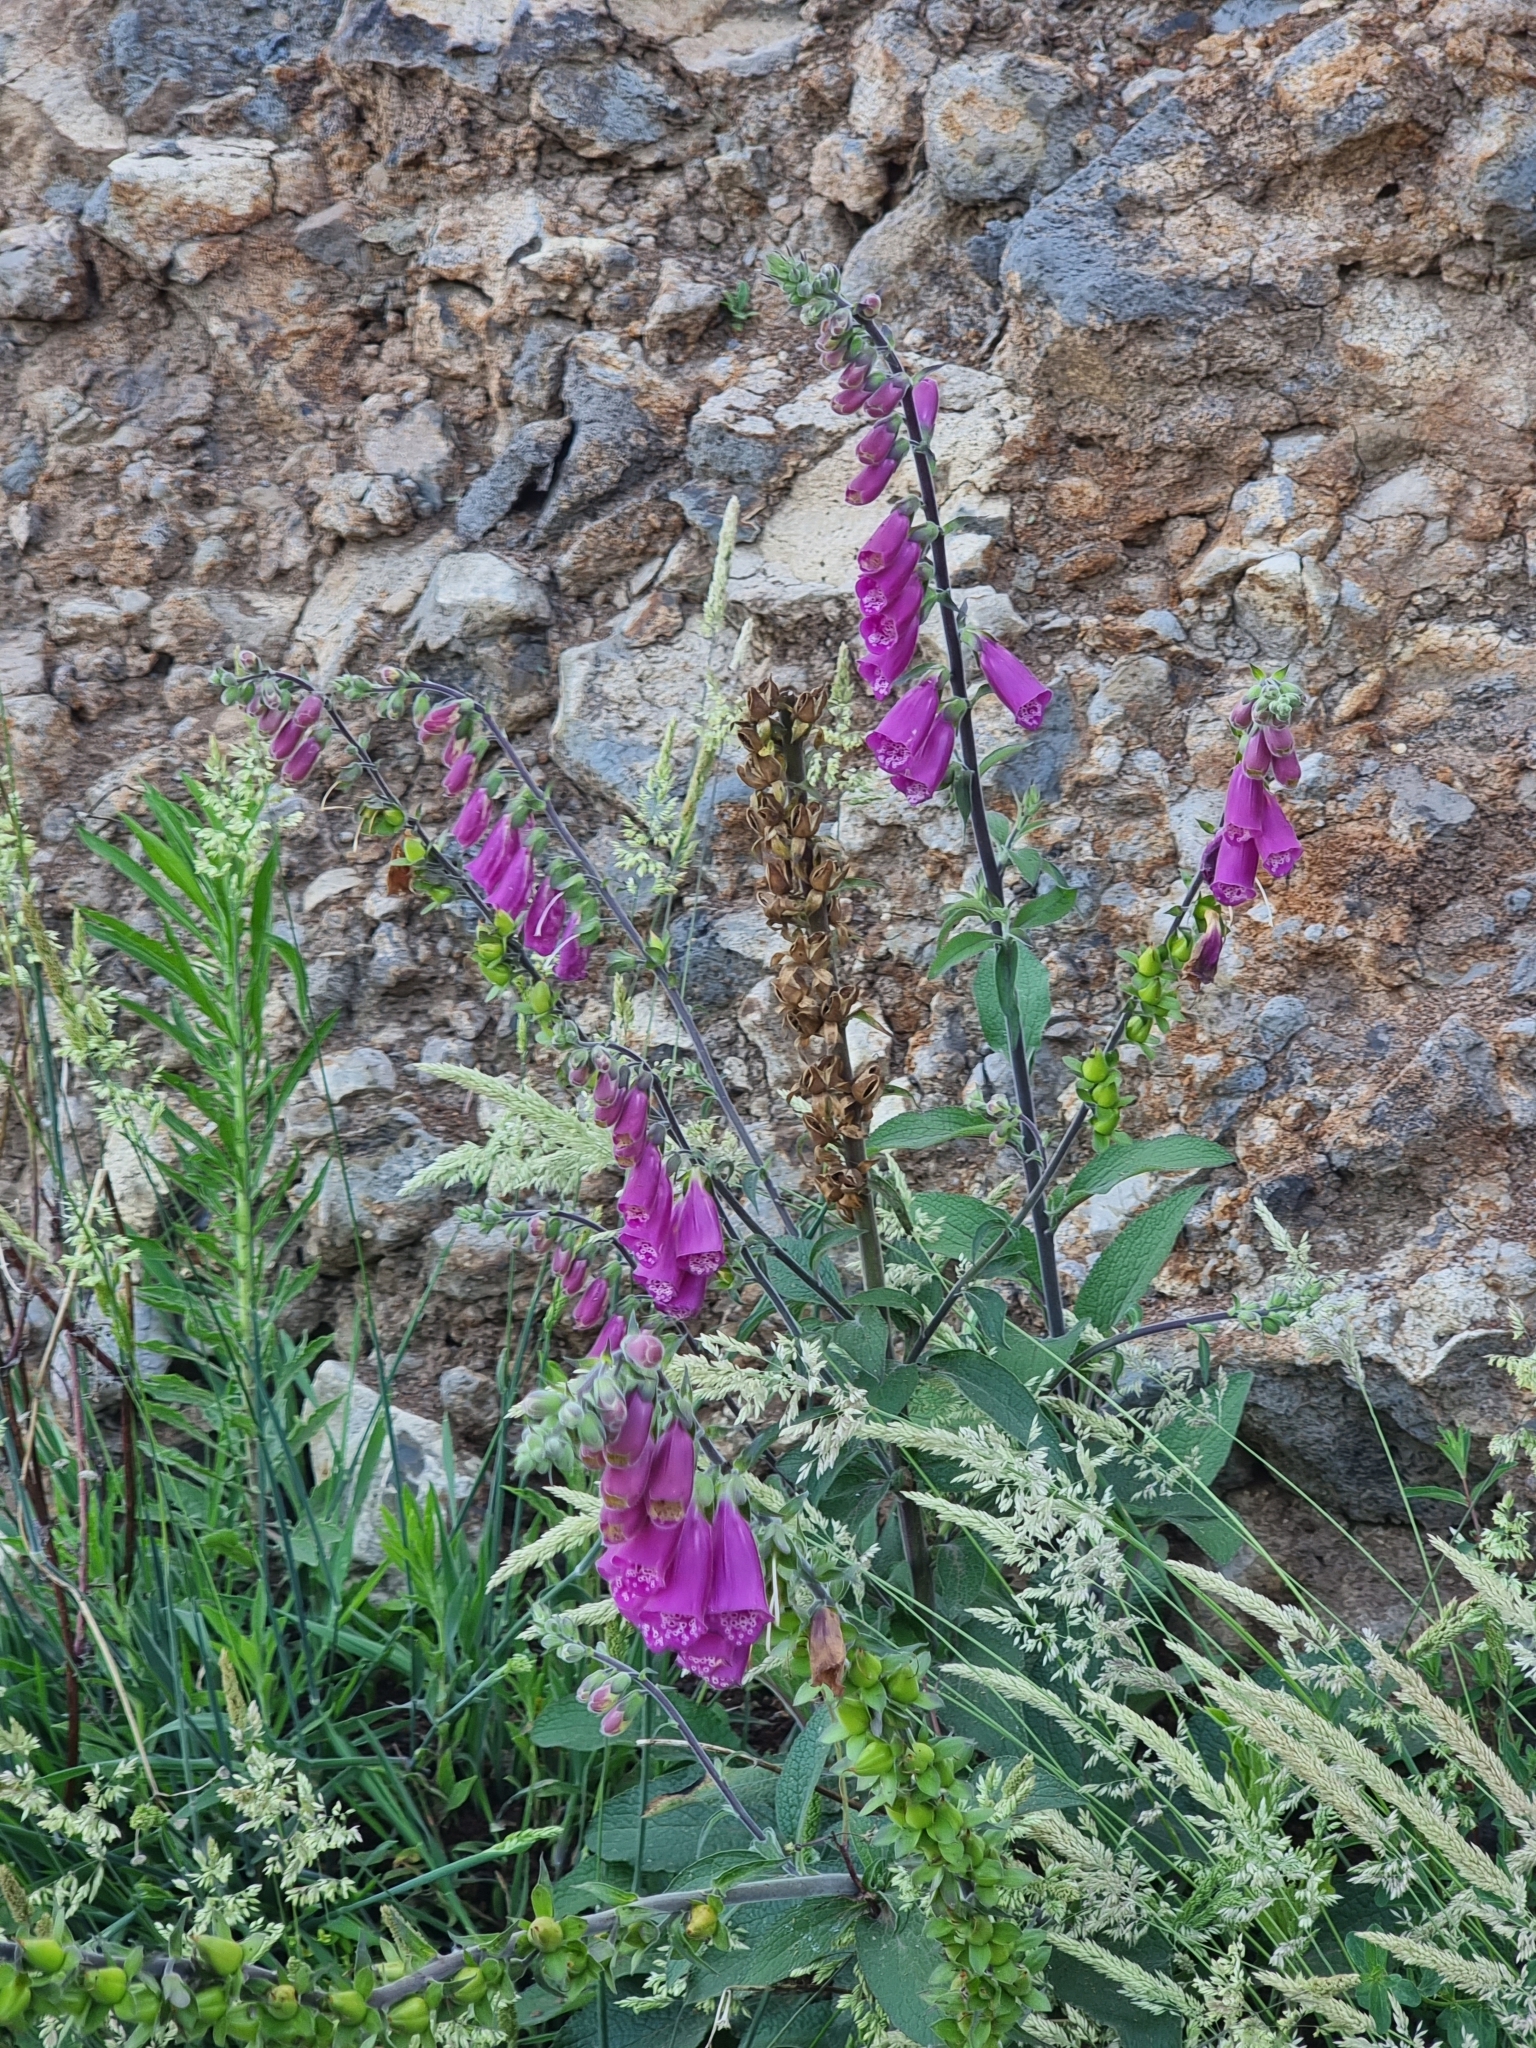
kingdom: Plantae
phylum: Tracheophyta
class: Magnoliopsida
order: Lamiales
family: Plantaginaceae
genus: Digitalis
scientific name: Digitalis purpurea
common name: Foxglove
